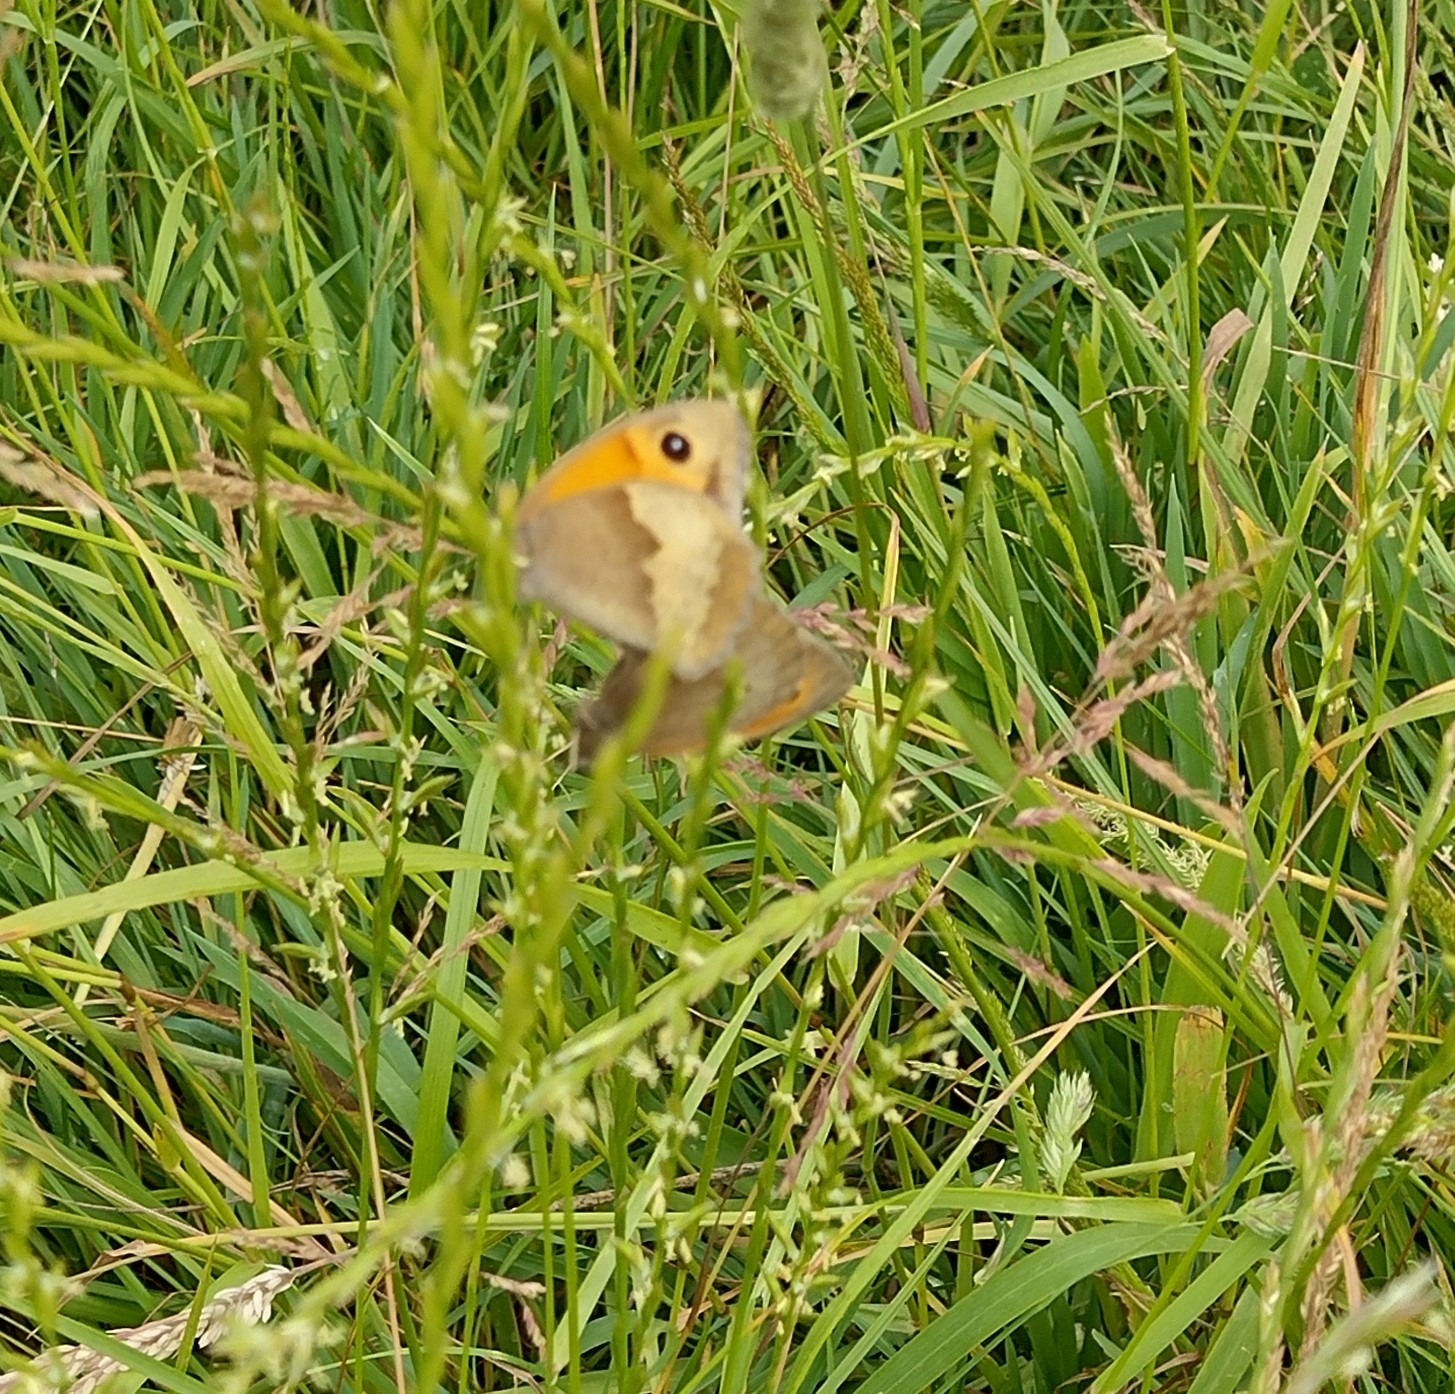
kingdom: Animalia
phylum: Arthropoda
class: Insecta
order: Lepidoptera
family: Nymphalidae
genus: Maniola
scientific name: Maniola jurtina
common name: Meadow brown
